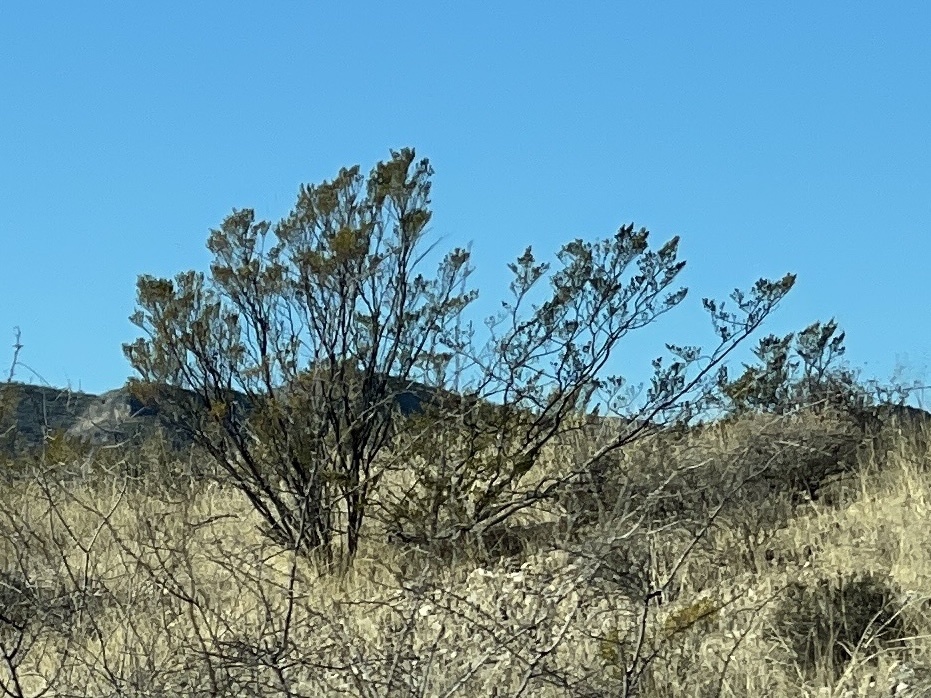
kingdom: Plantae
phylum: Tracheophyta
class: Magnoliopsida
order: Zygophyllales
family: Zygophyllaceae
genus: Larrea
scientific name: Larrea tridentata
